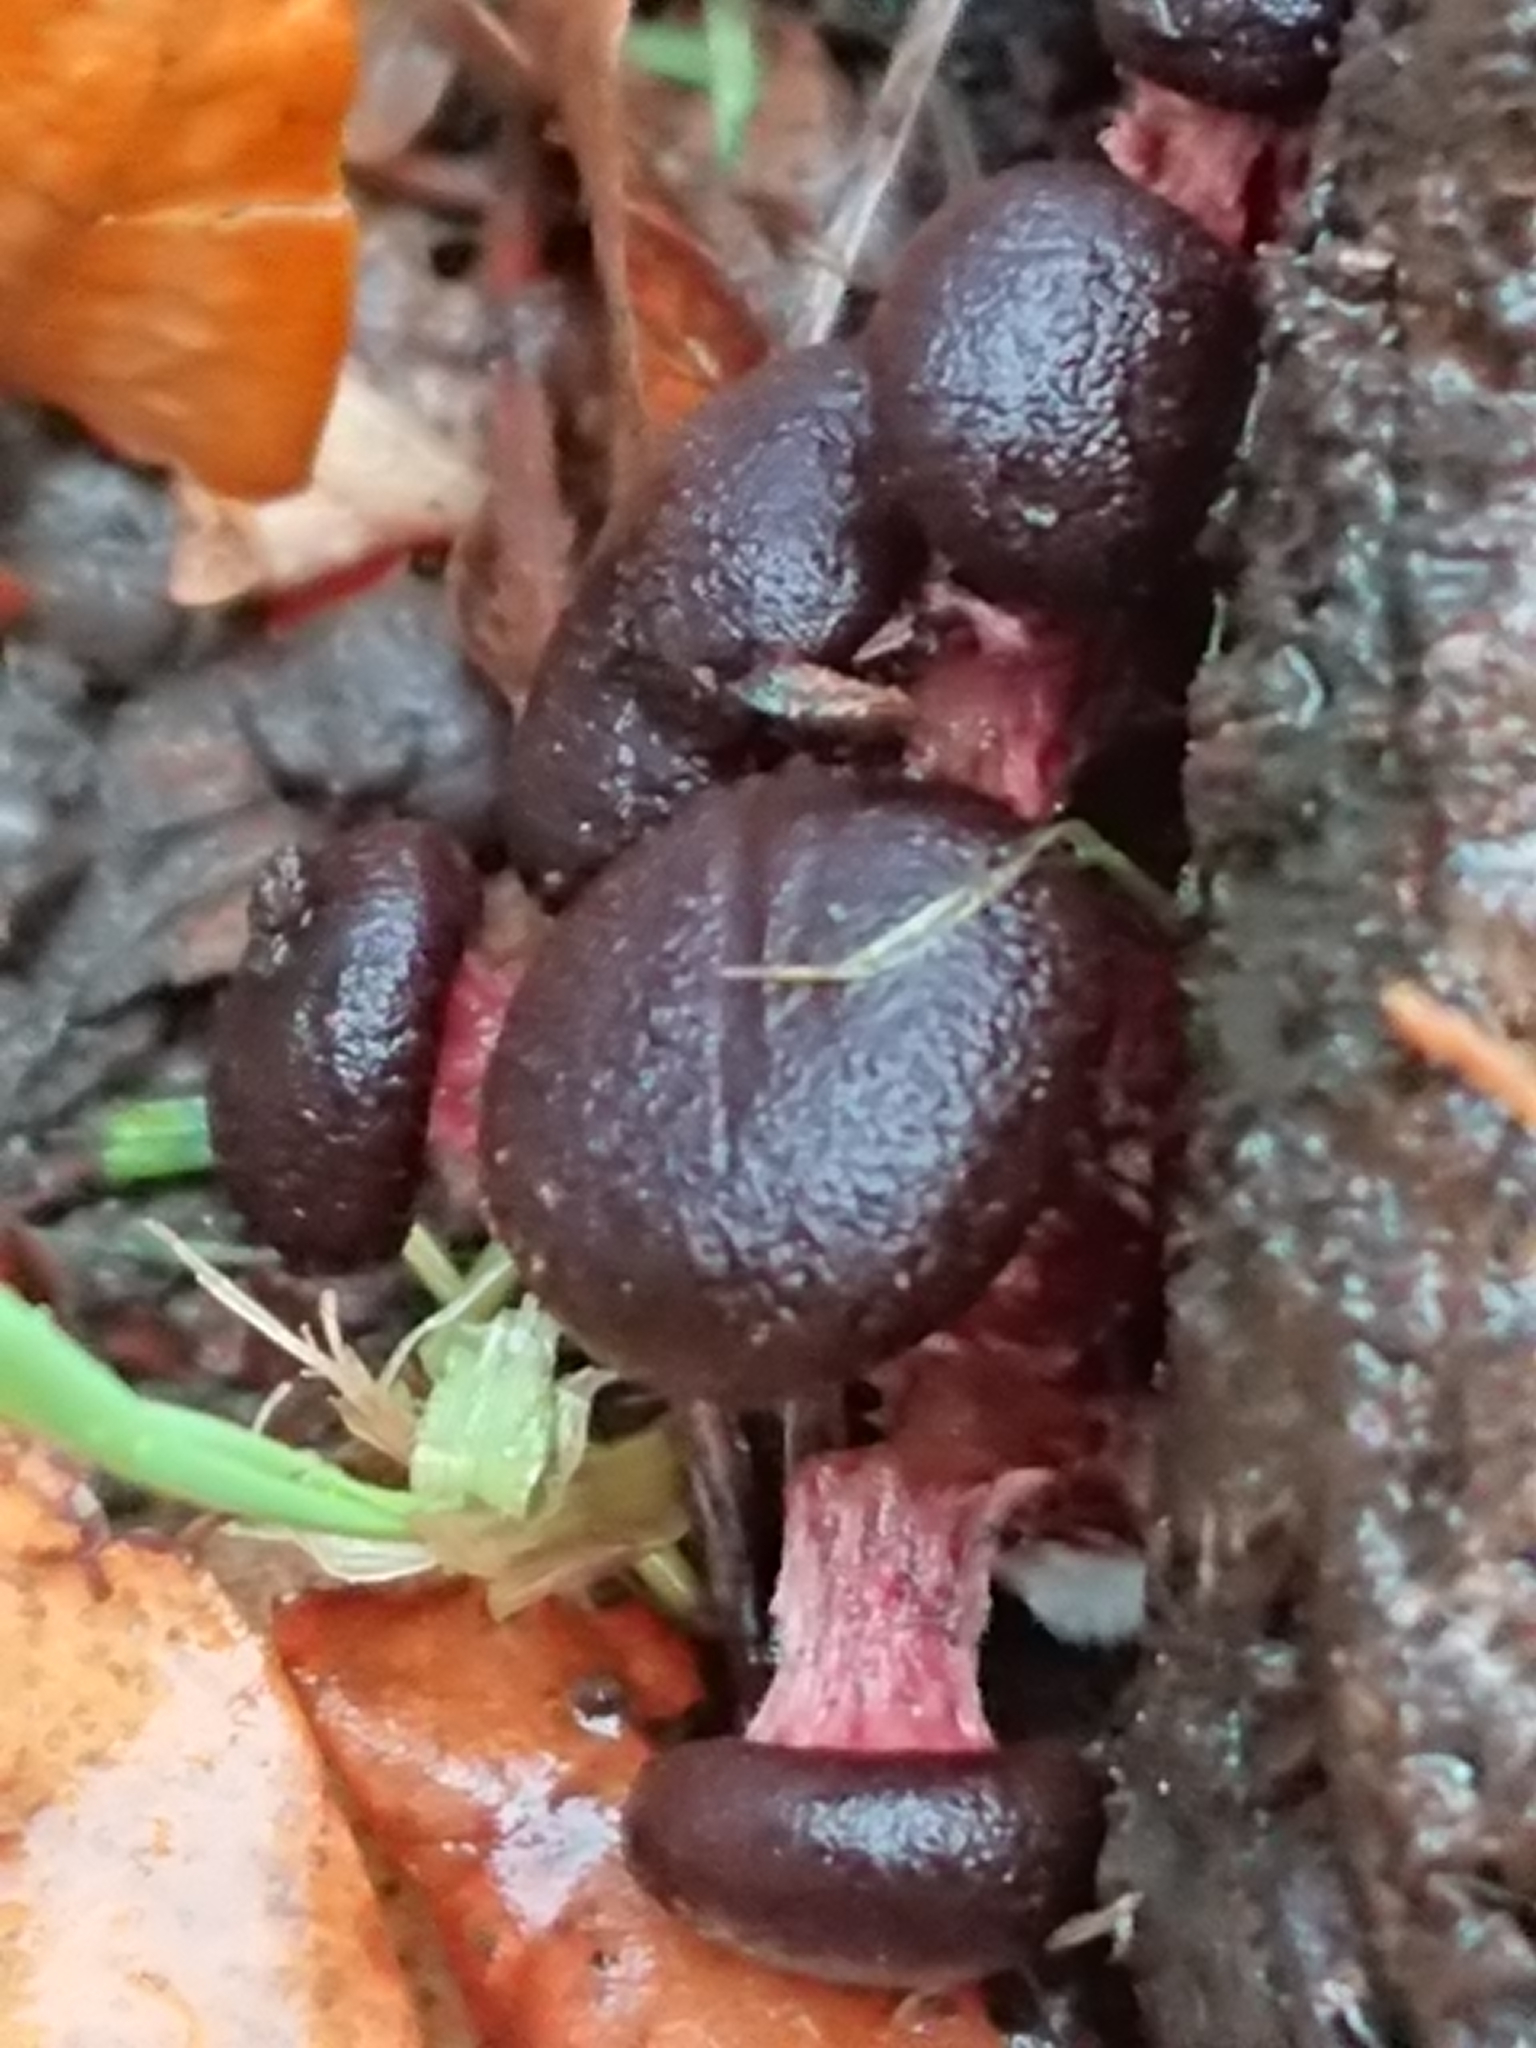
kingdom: Fungi
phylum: Basidiomycota
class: Agaricomycetes
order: Agaricales
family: Hymenogastraceae
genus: Gymnopilus
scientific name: Gymnopilus purpuratus
